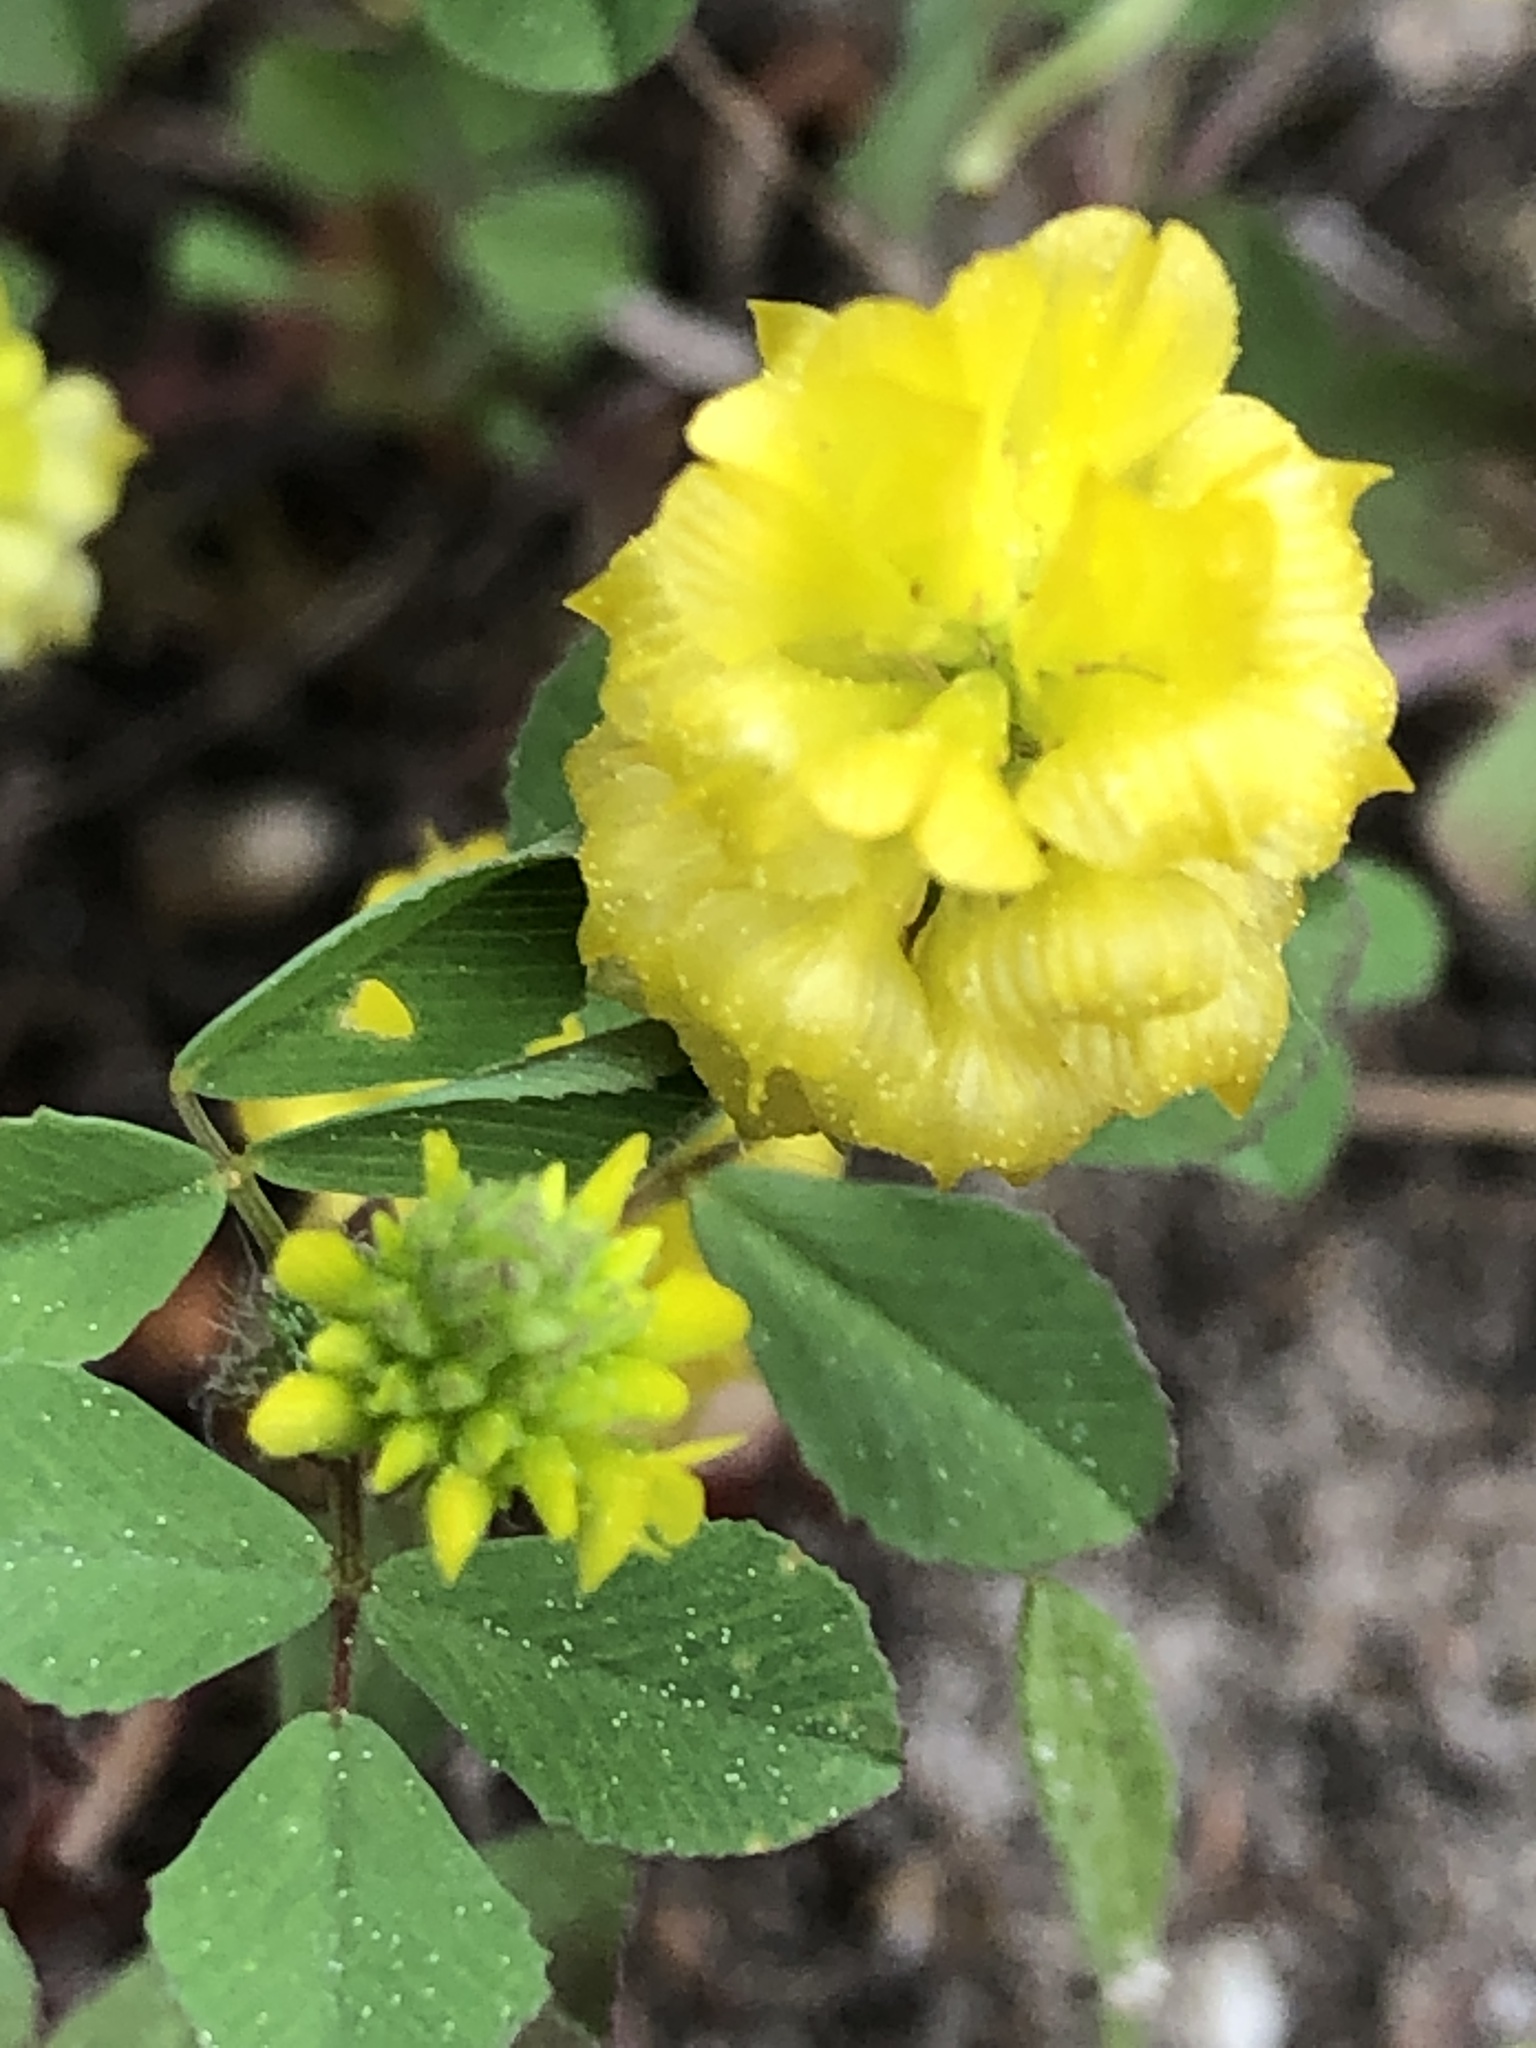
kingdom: Plantae
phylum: Tracheophyta
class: Magnoliopsida
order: Fabales
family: Fabaceae
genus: Trifolium
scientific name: Trifolium campestre
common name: Field clover
